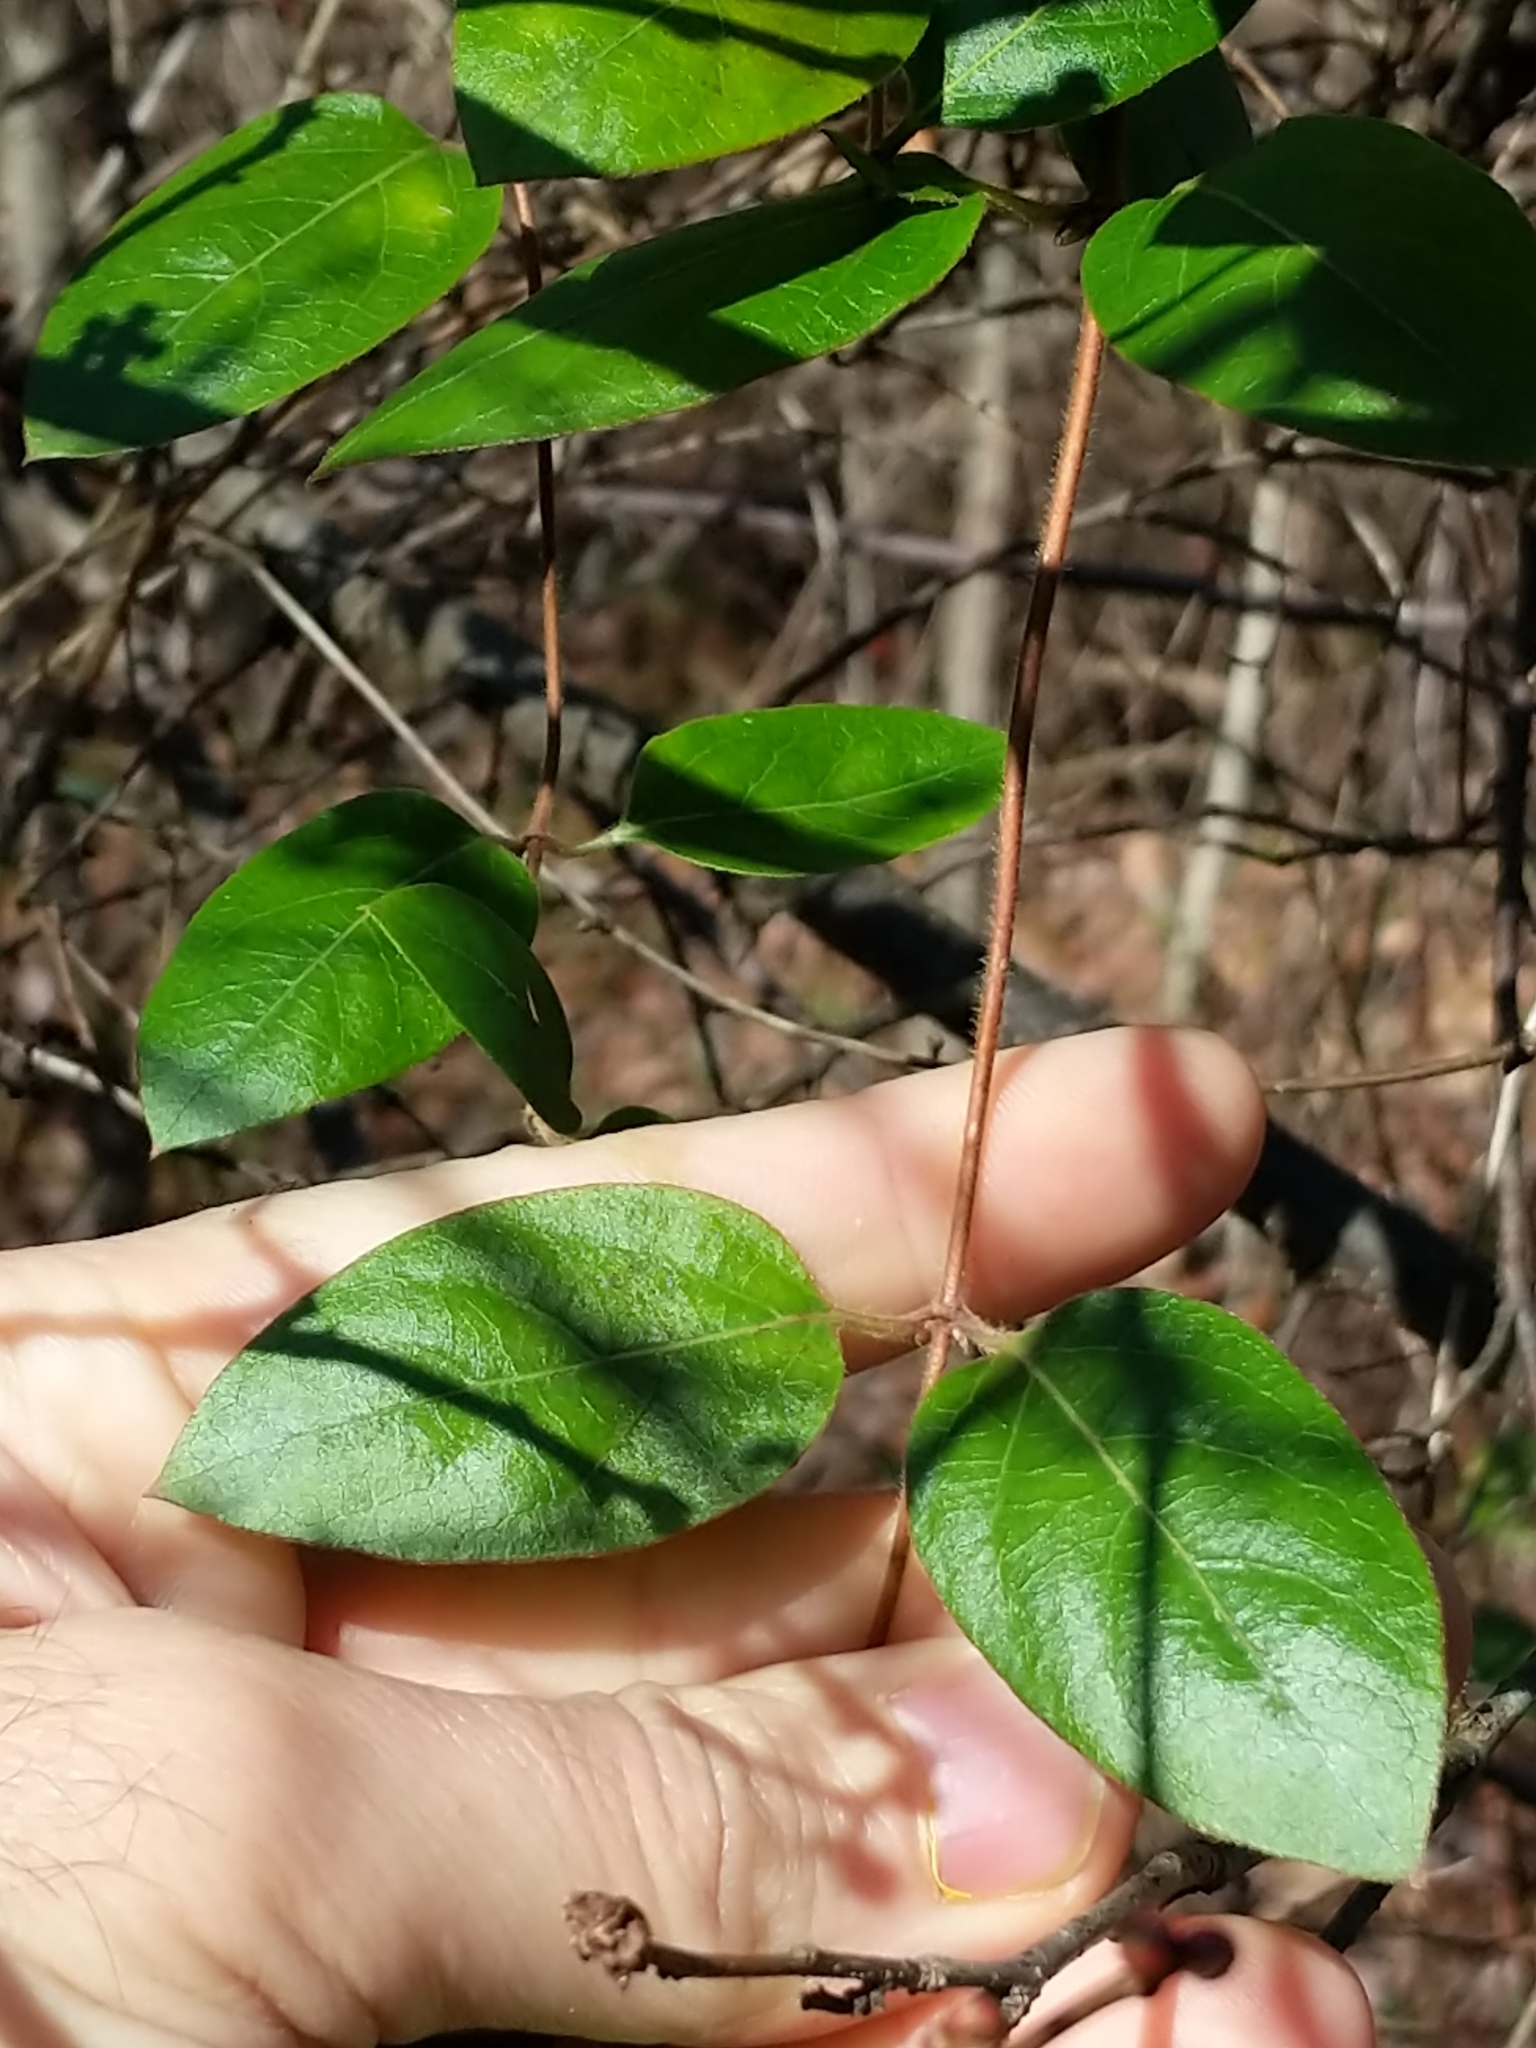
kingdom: Plantae
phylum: Tracheophyta
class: Magnoliopsida
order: Dipsacales
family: Caprifoliaceae
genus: Lonicera
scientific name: Lonicera japonica
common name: Japanese honeysuckle
